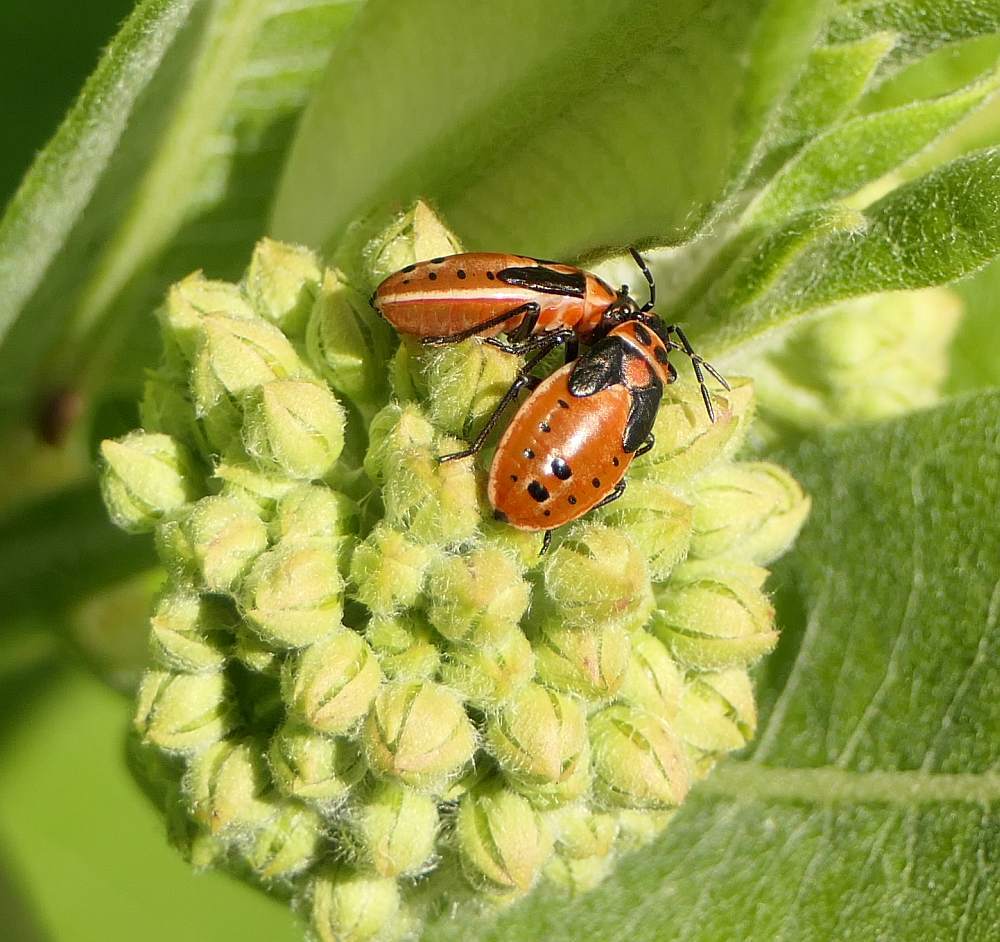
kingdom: Animalia
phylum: Arthropoda
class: Insecta
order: Hemiptera
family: Lygaeidae
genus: Lygaeus
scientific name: Lygaeus kalmii
